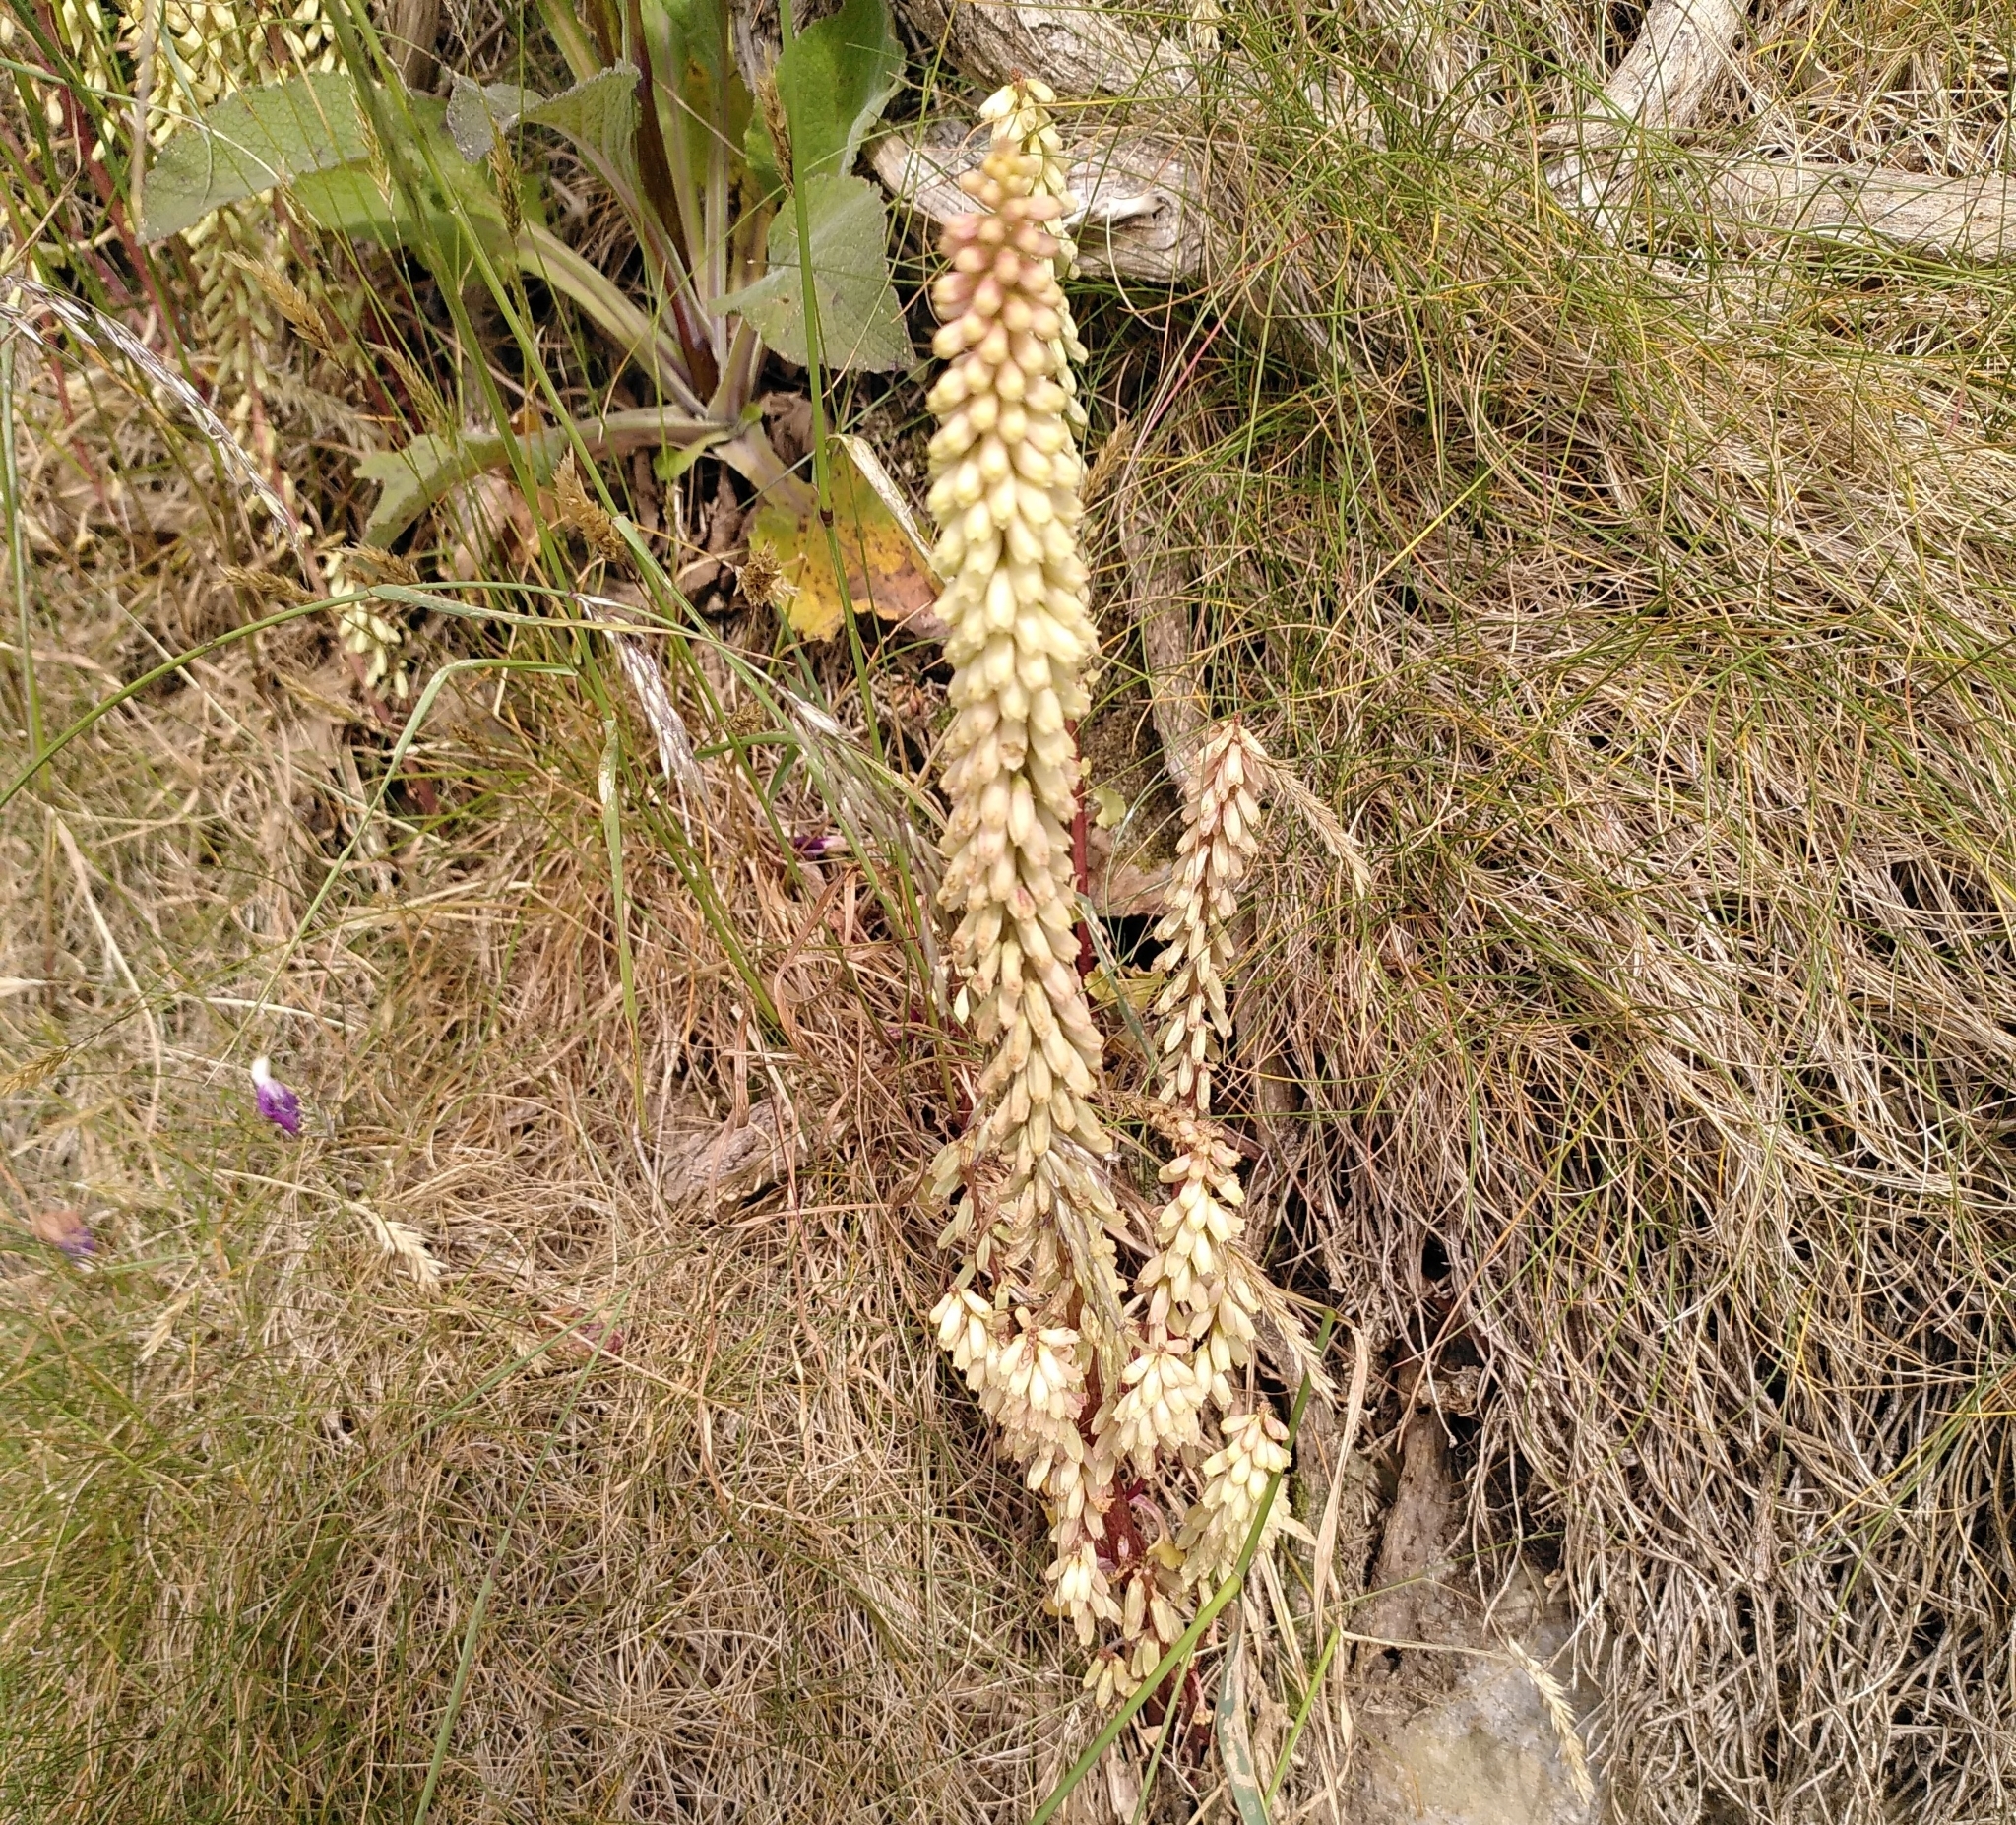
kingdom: Plantae
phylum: Tracheophyta
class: Magnoliopsida
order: Saxifragales
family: Crassulaceae
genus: Umbilicus
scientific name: Umbilicus rupestris
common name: Navelwort
